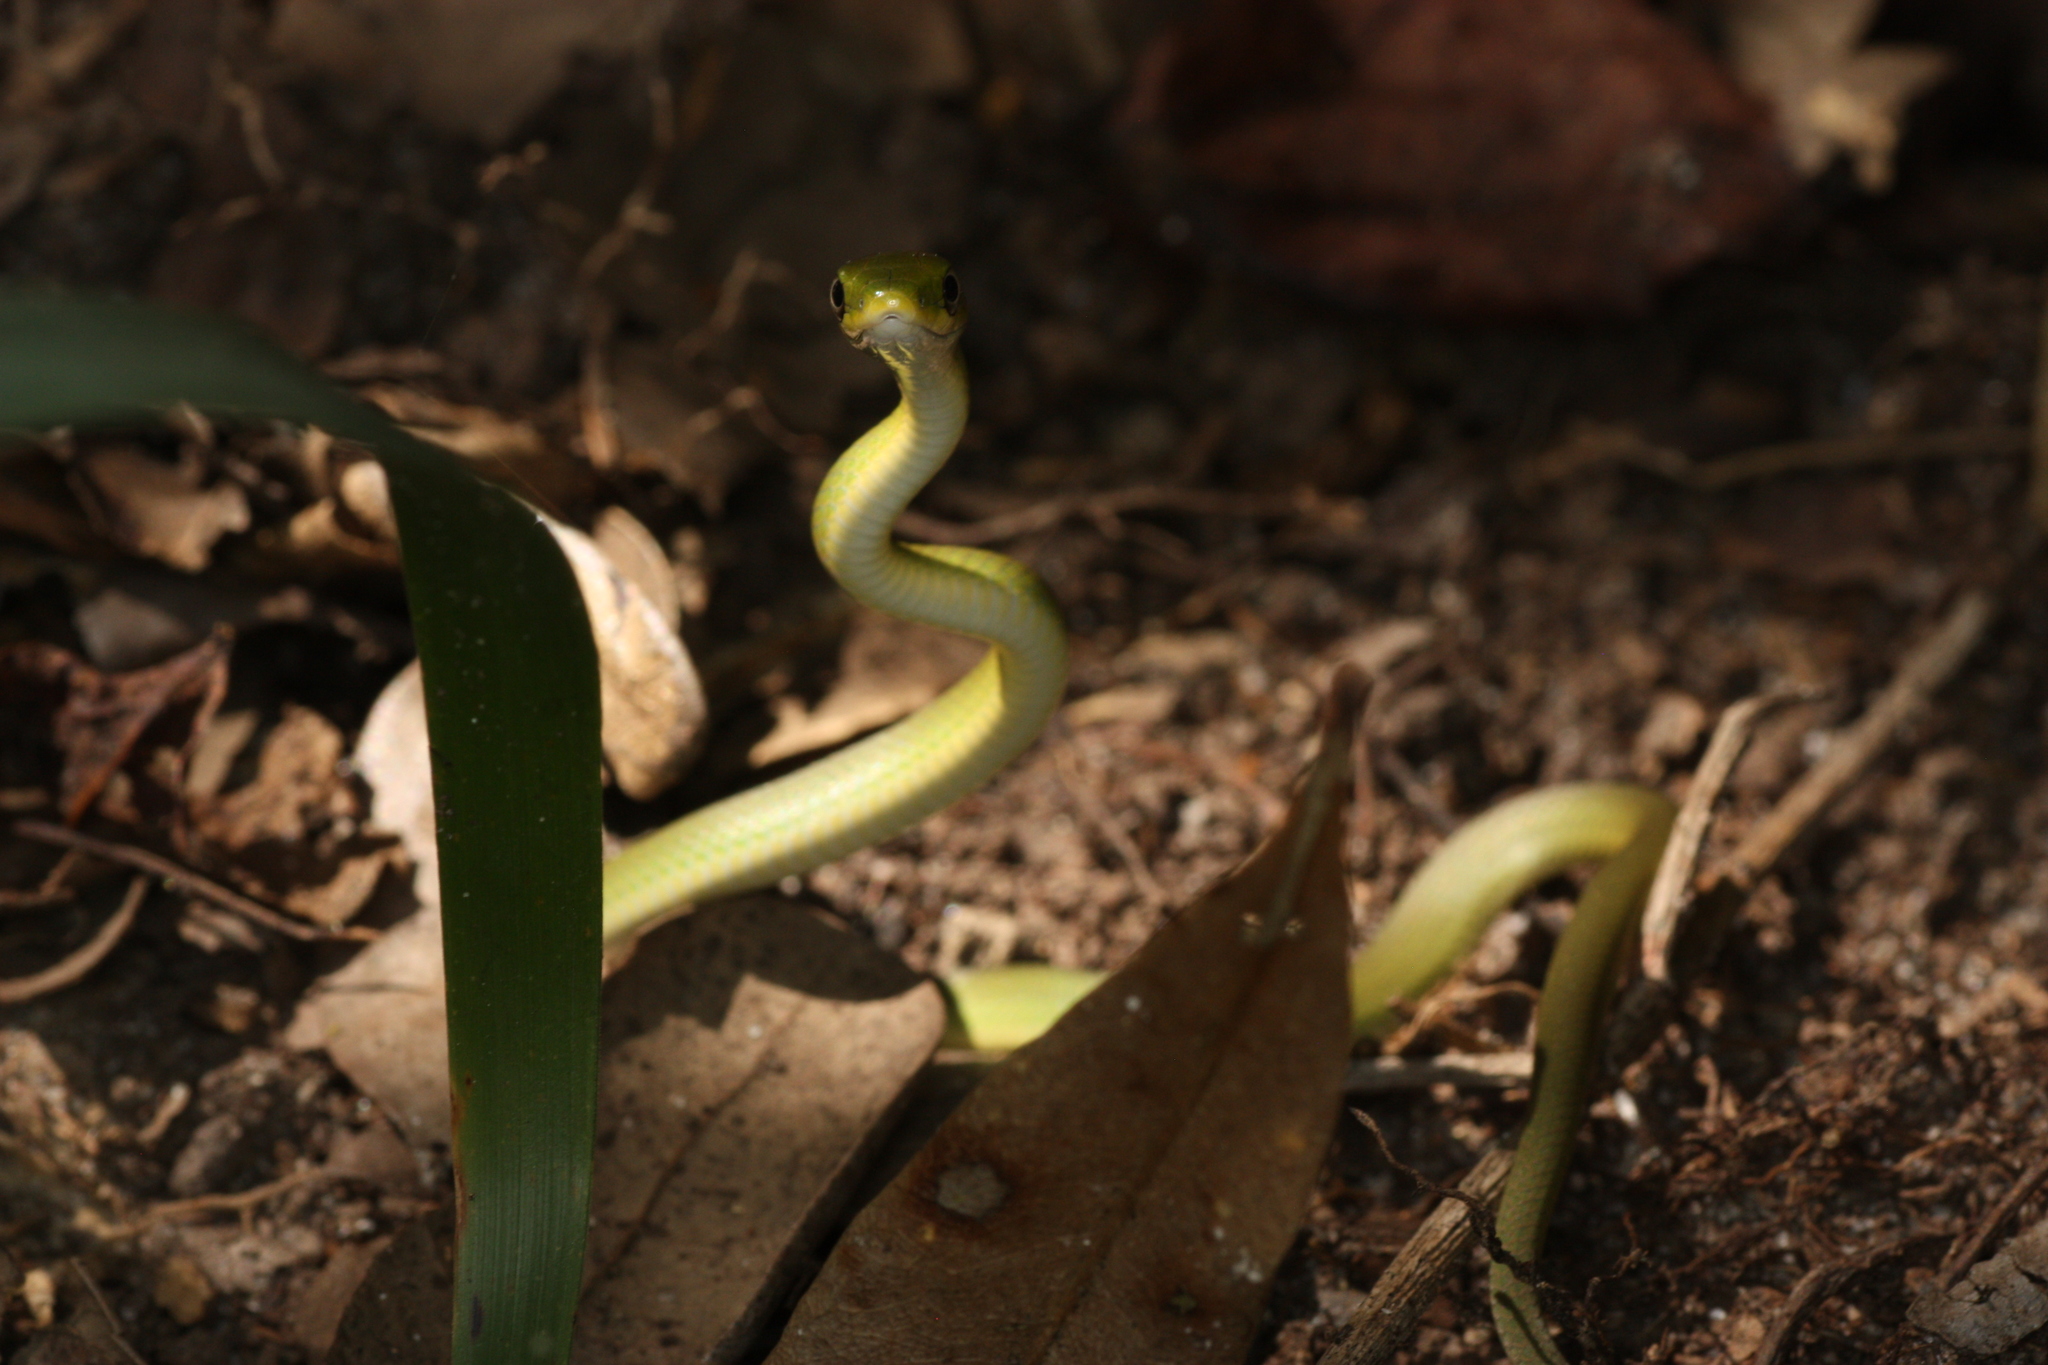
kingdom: Animalia
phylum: Chordata
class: Squamata
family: Colubridae
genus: Opheodrys
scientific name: Opheodrys aestivus
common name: Rough greensnake
